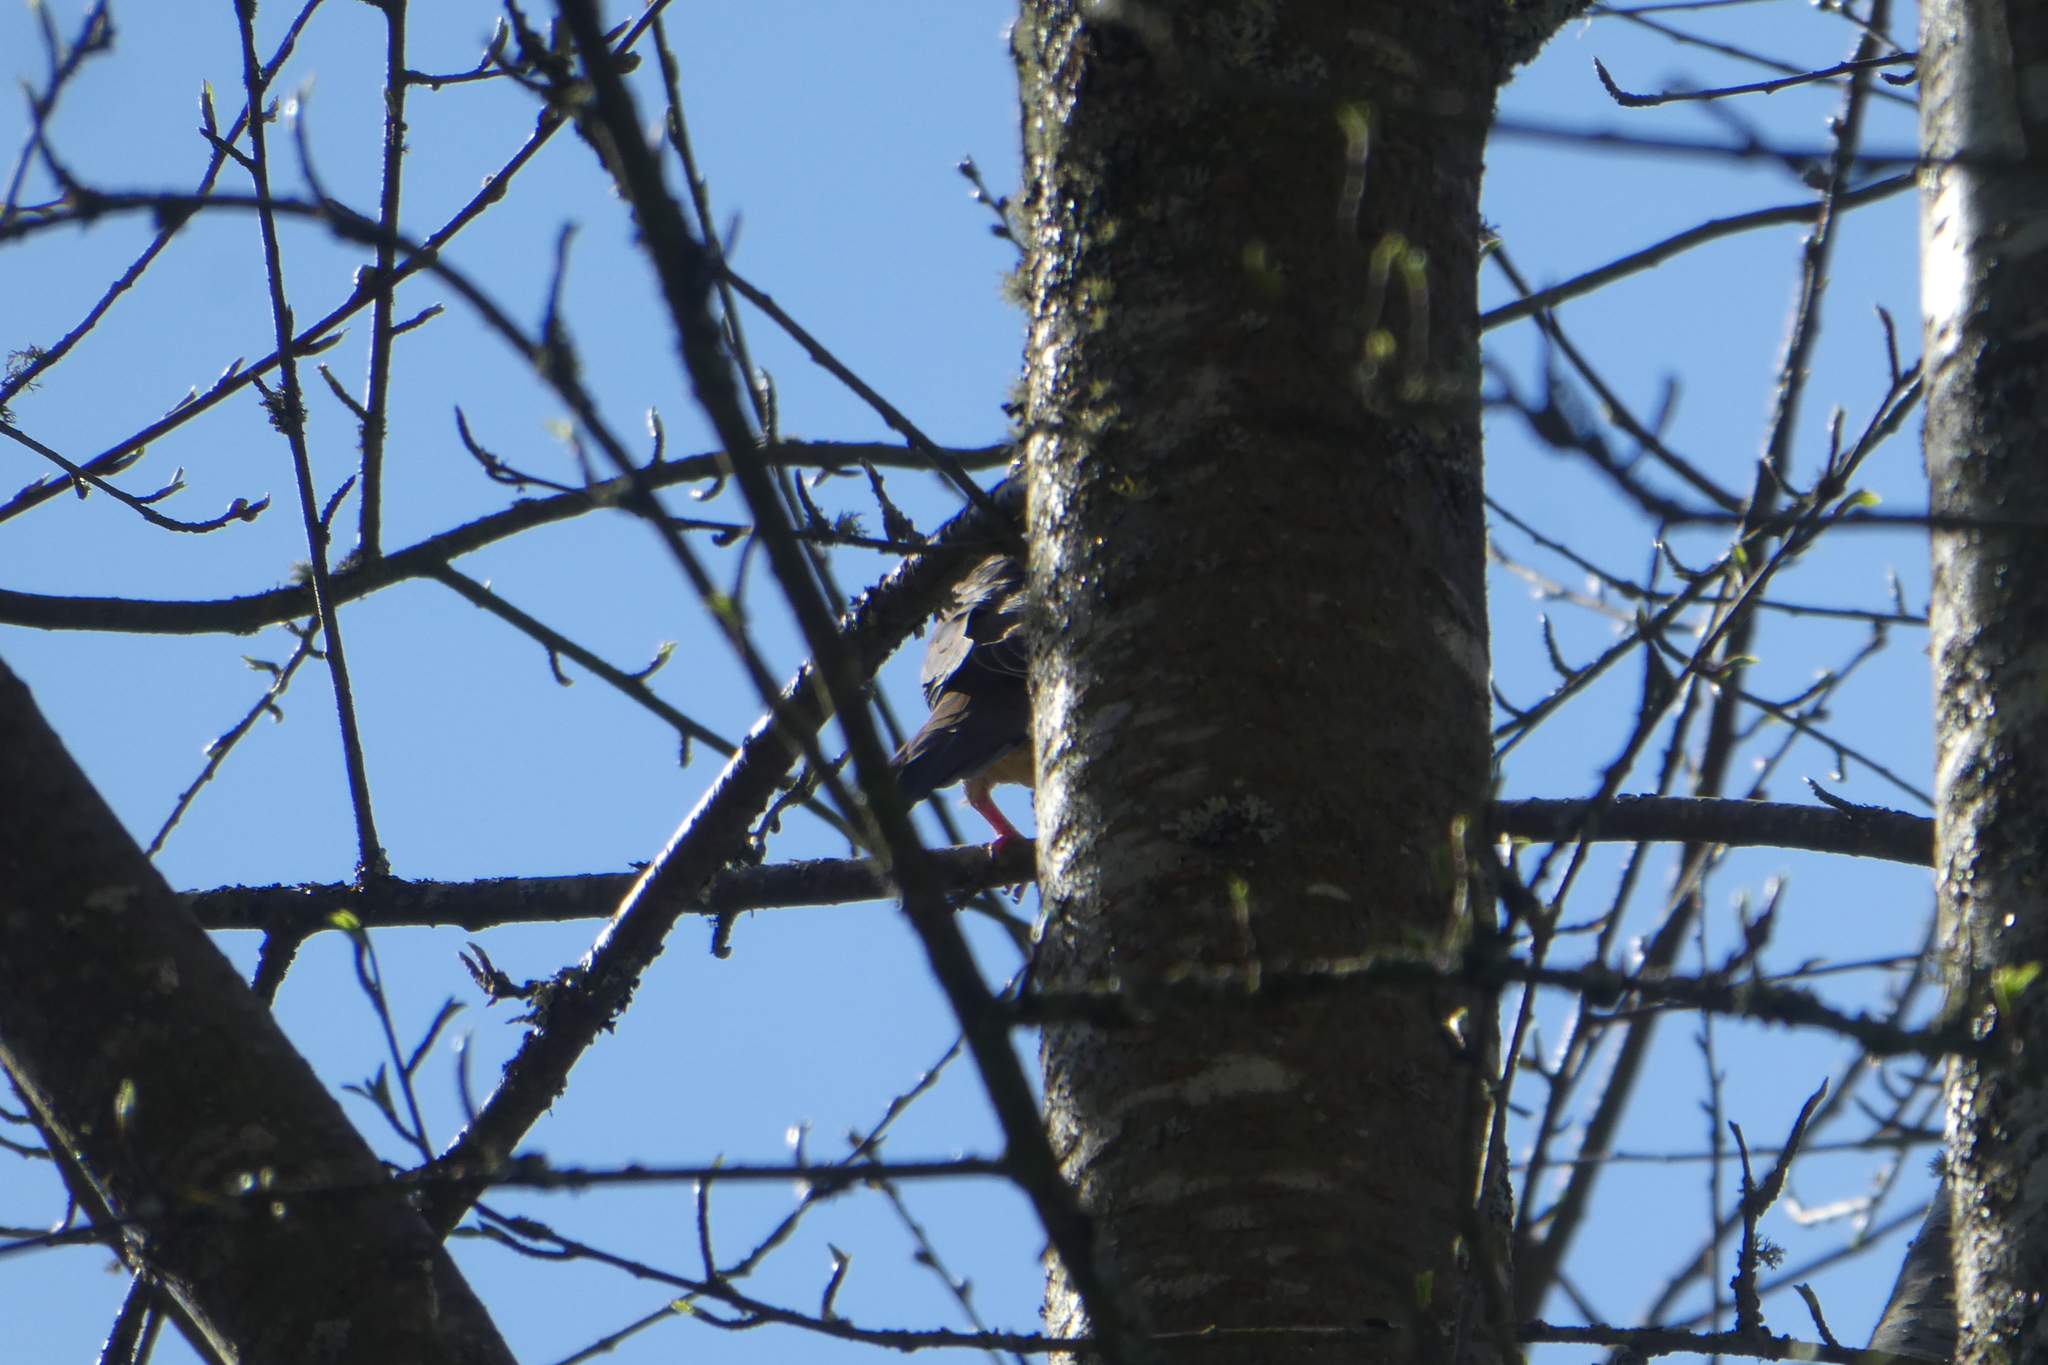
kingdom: Animalia
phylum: Chordata
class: Aves
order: Columbiformes
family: Columbidae
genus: Zenaida
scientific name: Zenaida macroura
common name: Mourning dove
